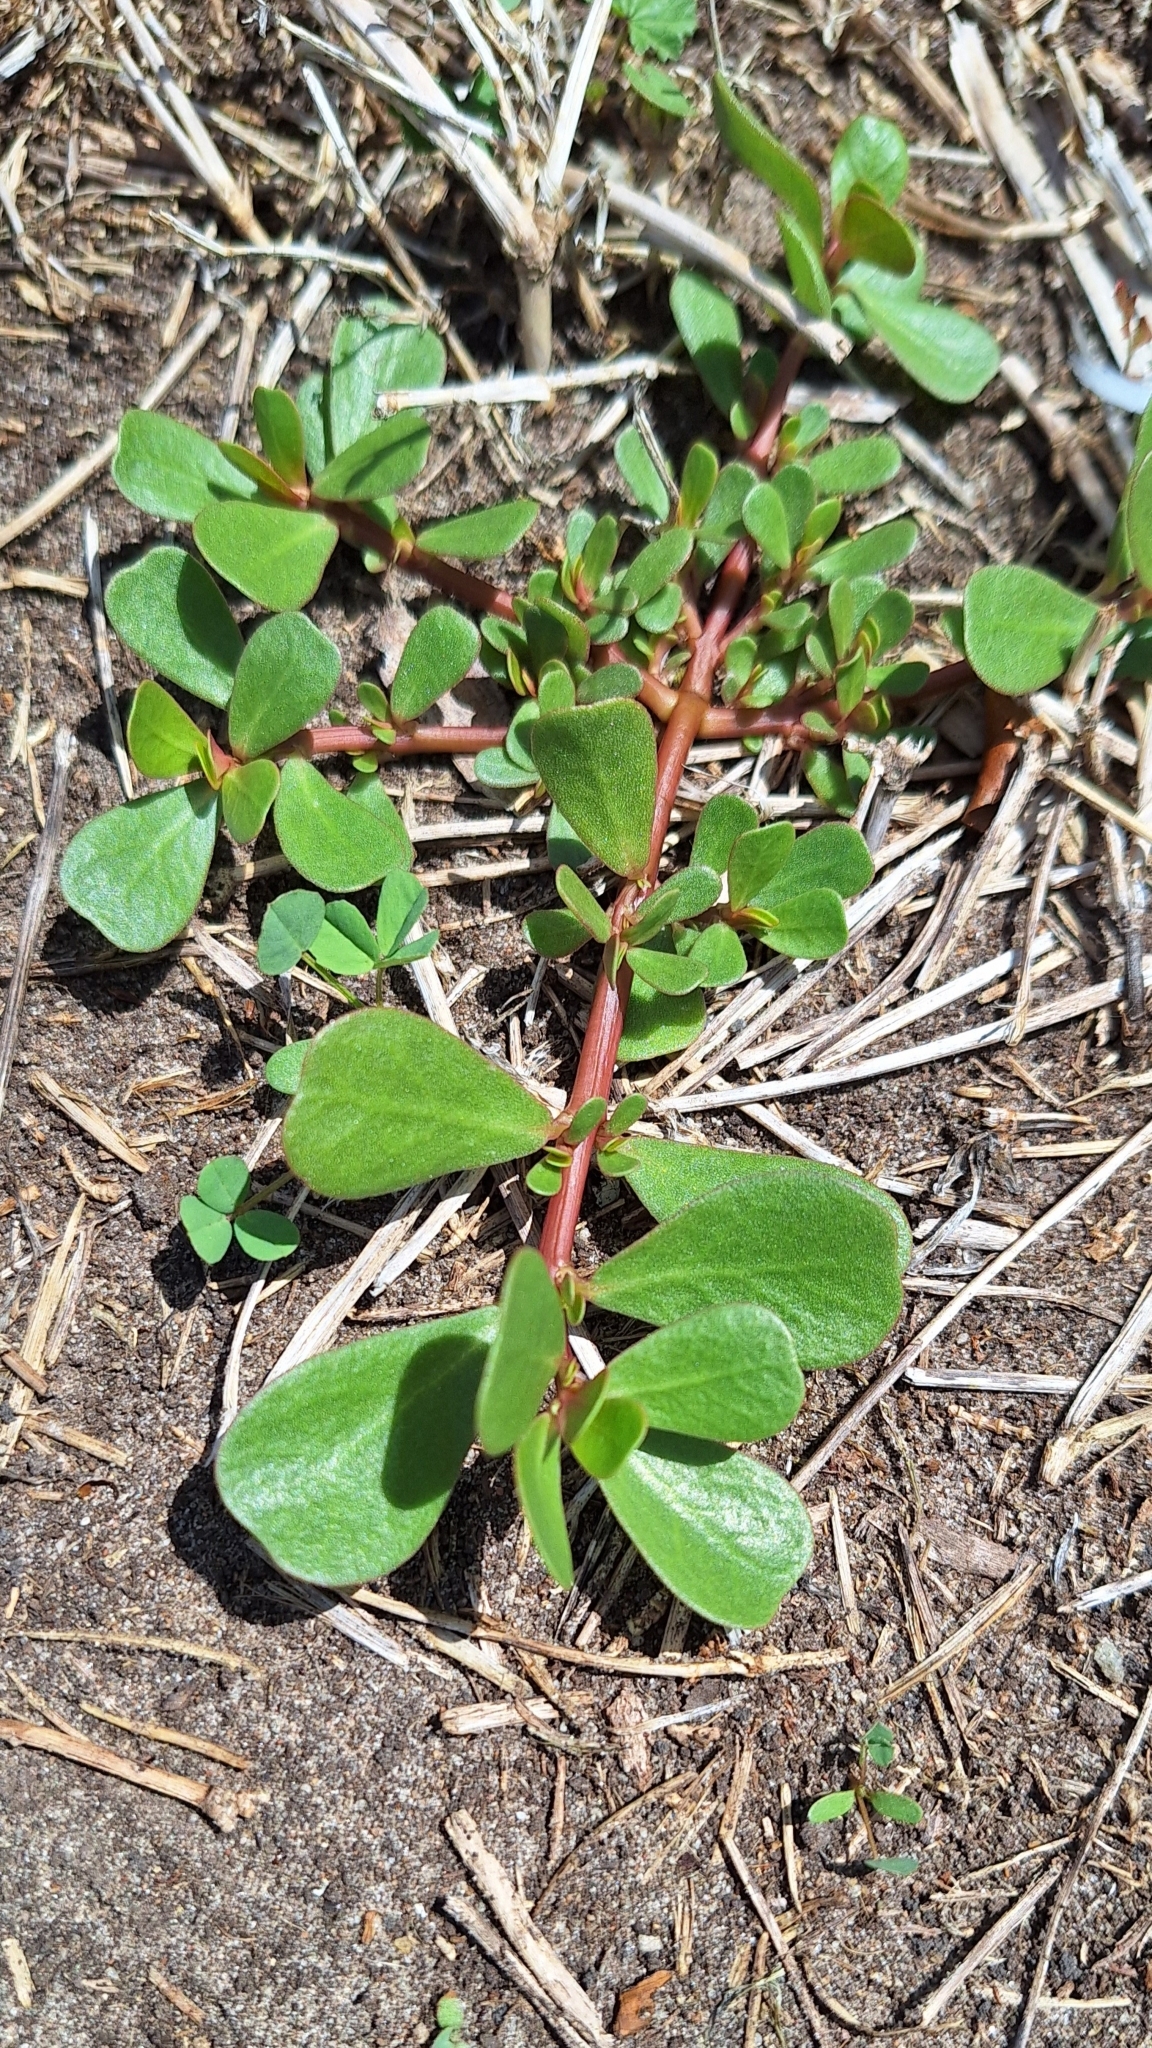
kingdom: Plantae
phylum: Tracheophyta
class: Magnoliopsida
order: Caryophyllales
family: Portulacaceae
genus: Portulaca
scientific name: Portulaca oleracea
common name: Common purslane
